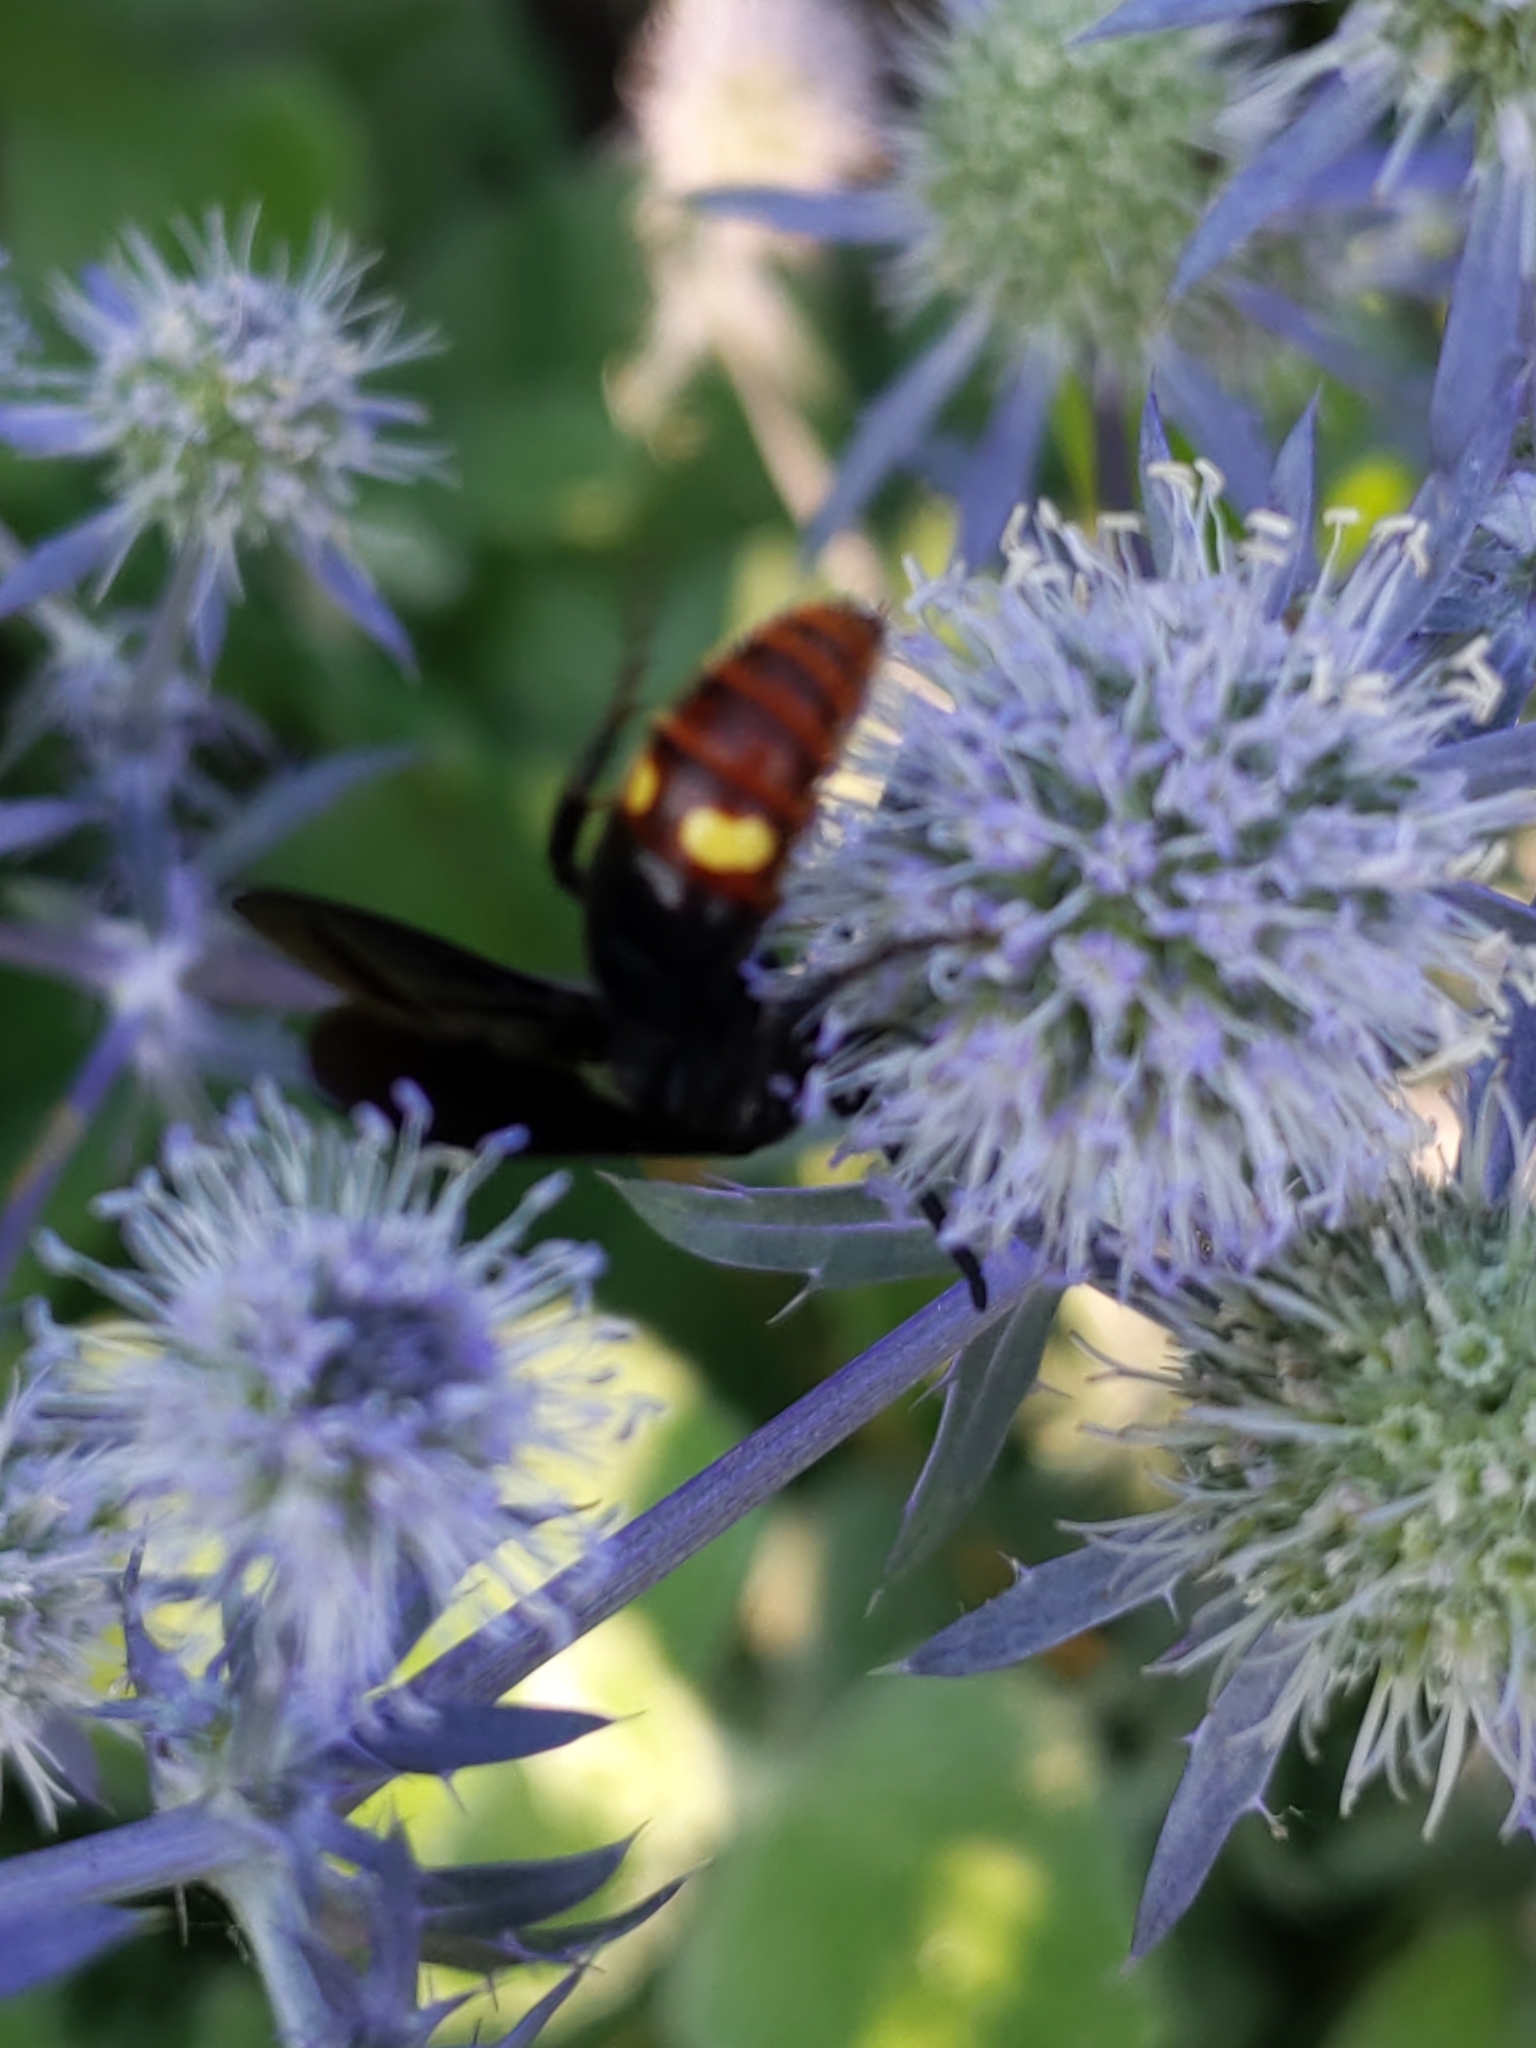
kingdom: Animalia
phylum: Arthropoda
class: Insecta
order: Hymenoptera
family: Scoliidae
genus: Scolia
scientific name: Scolia dubia
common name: Blue-winged scoliid wasp
